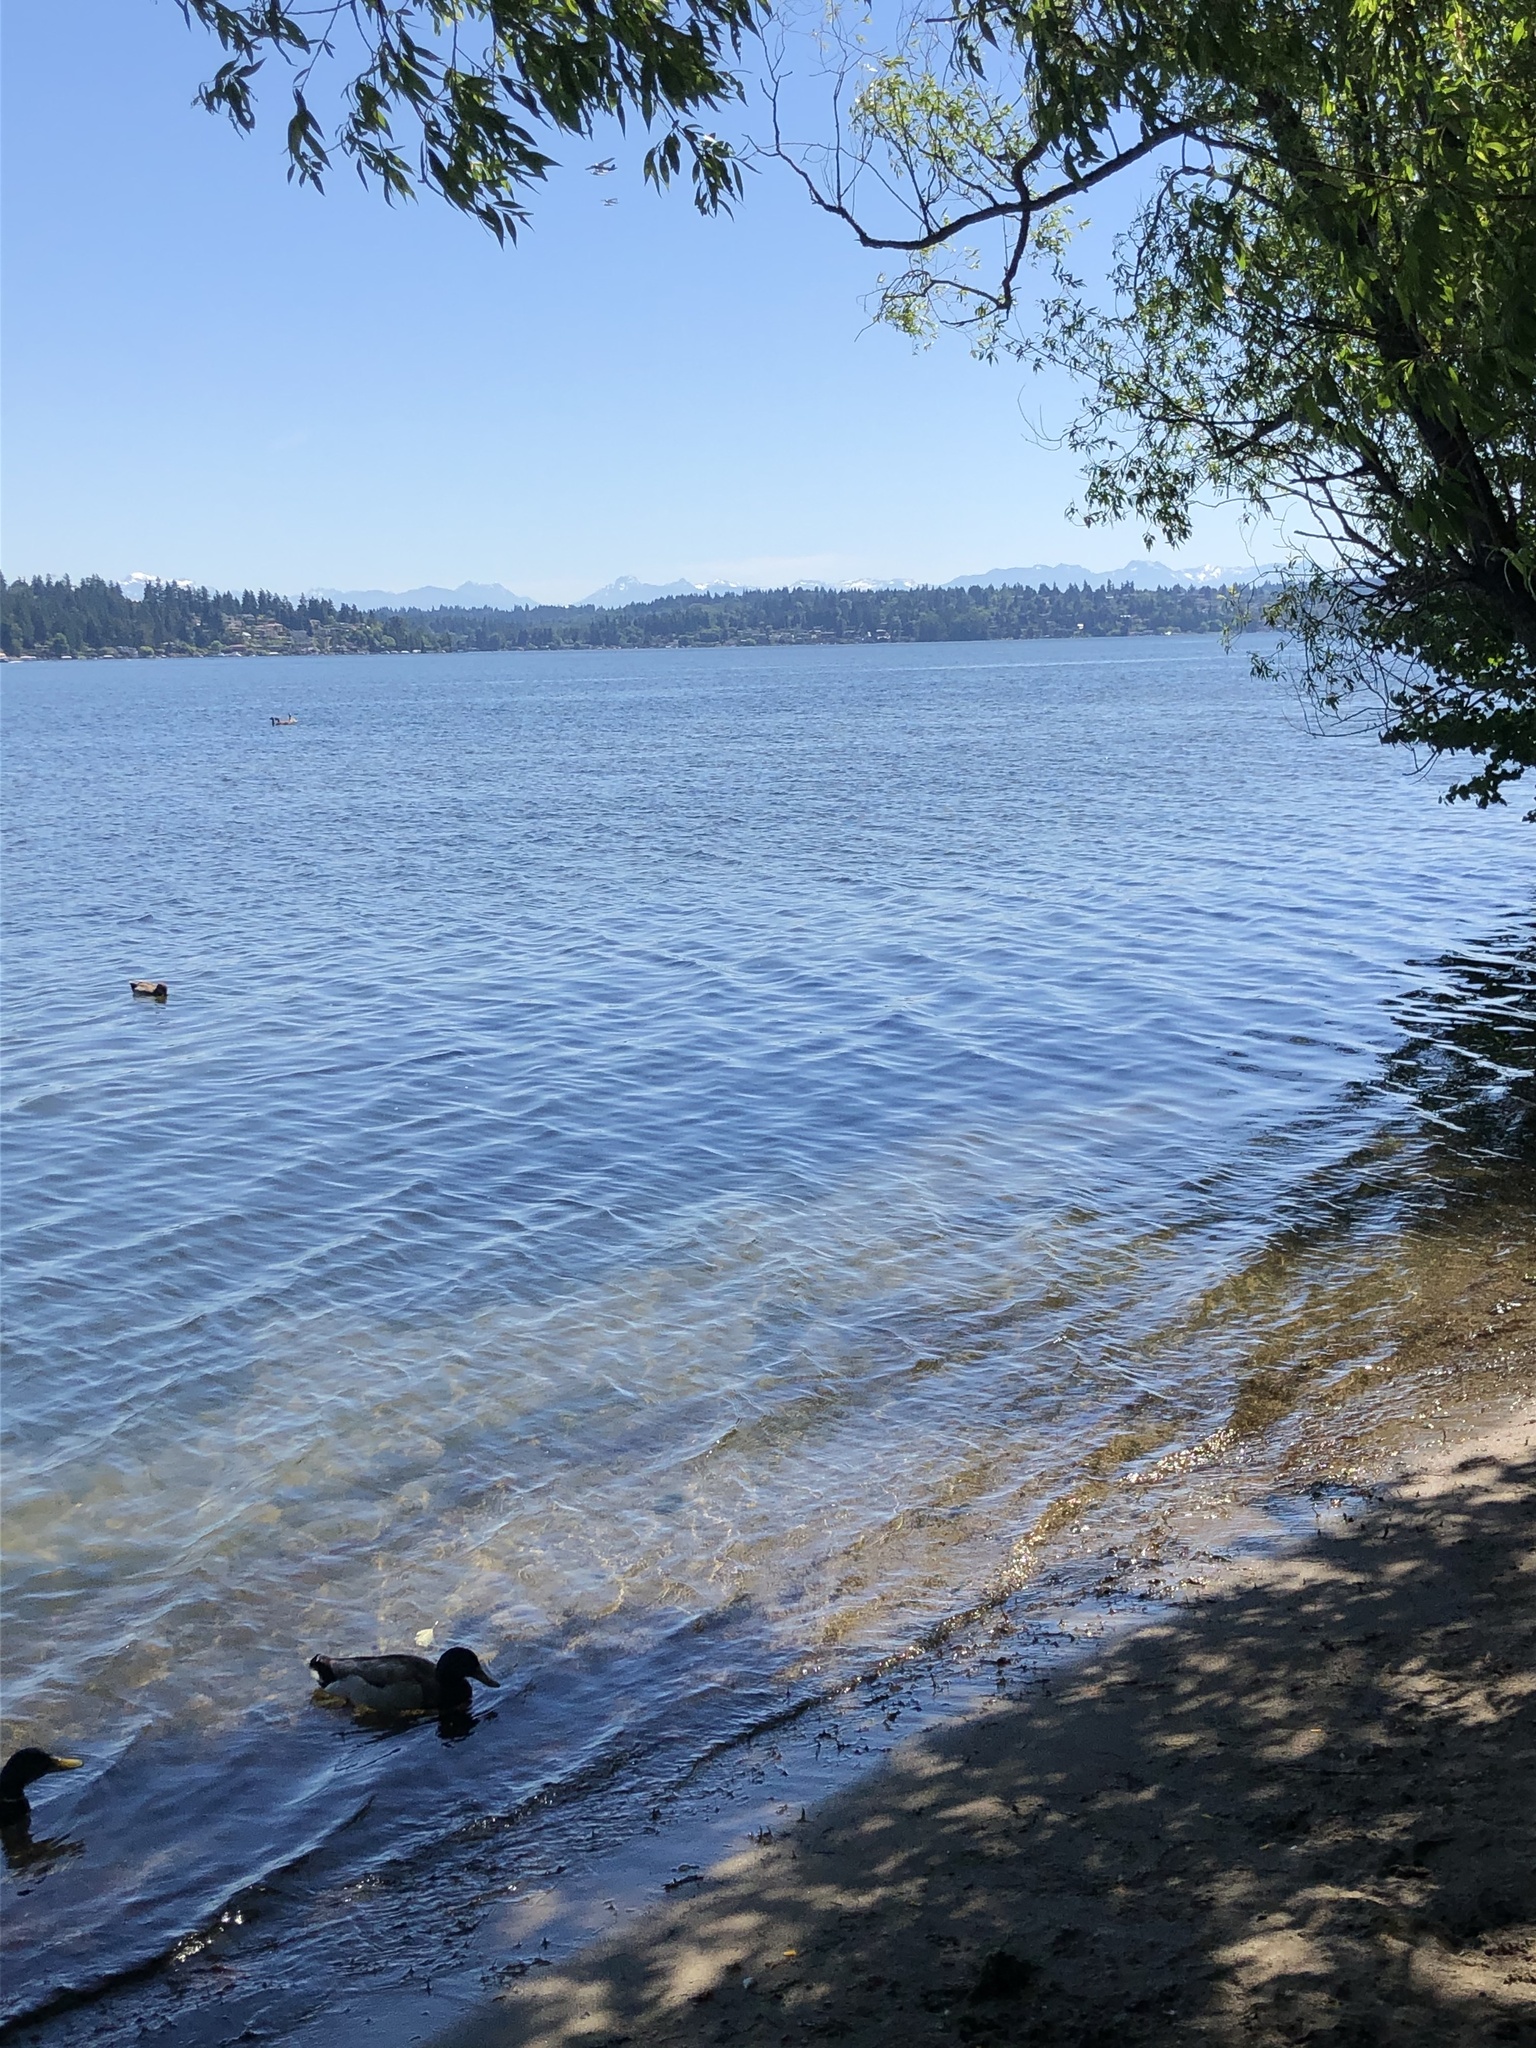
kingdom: Animalia
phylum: Chordata
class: Aves
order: Anseriformes
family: Anatidae
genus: Anas
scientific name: Anas platyrhynchos
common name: Mallard
